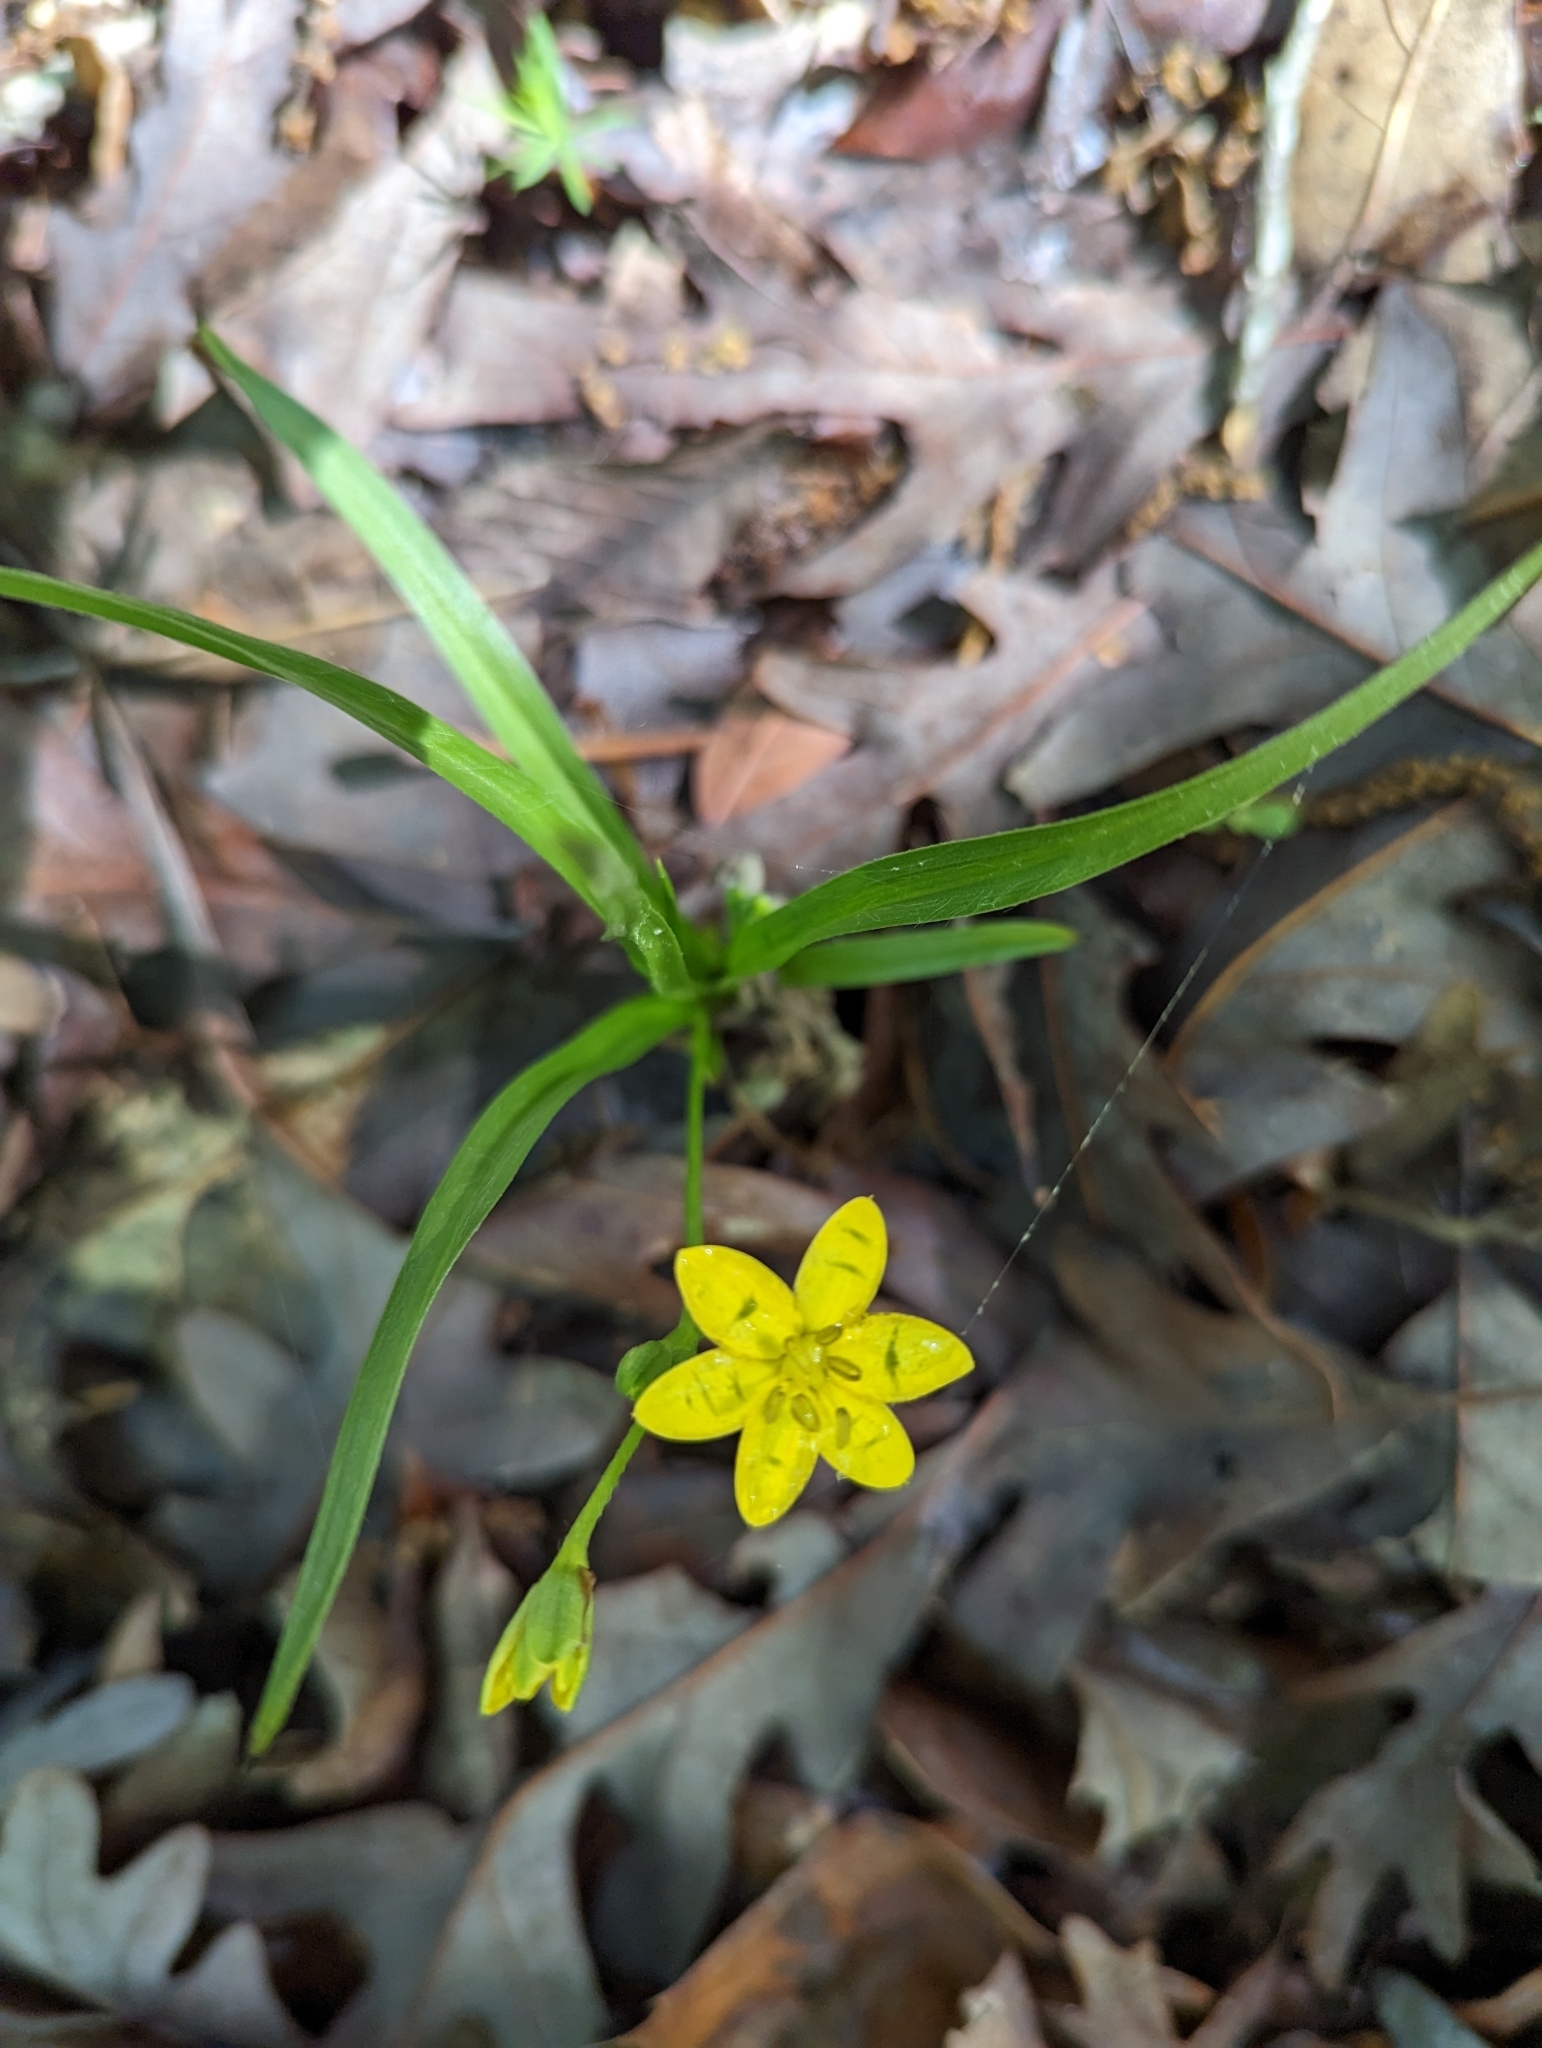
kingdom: Plantae
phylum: Tracheophyta
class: Liliopsida
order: Asparagales
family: Hypoxidaceae
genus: Hypoxis
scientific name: Hypoxis hirsuta
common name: Common goldstar
